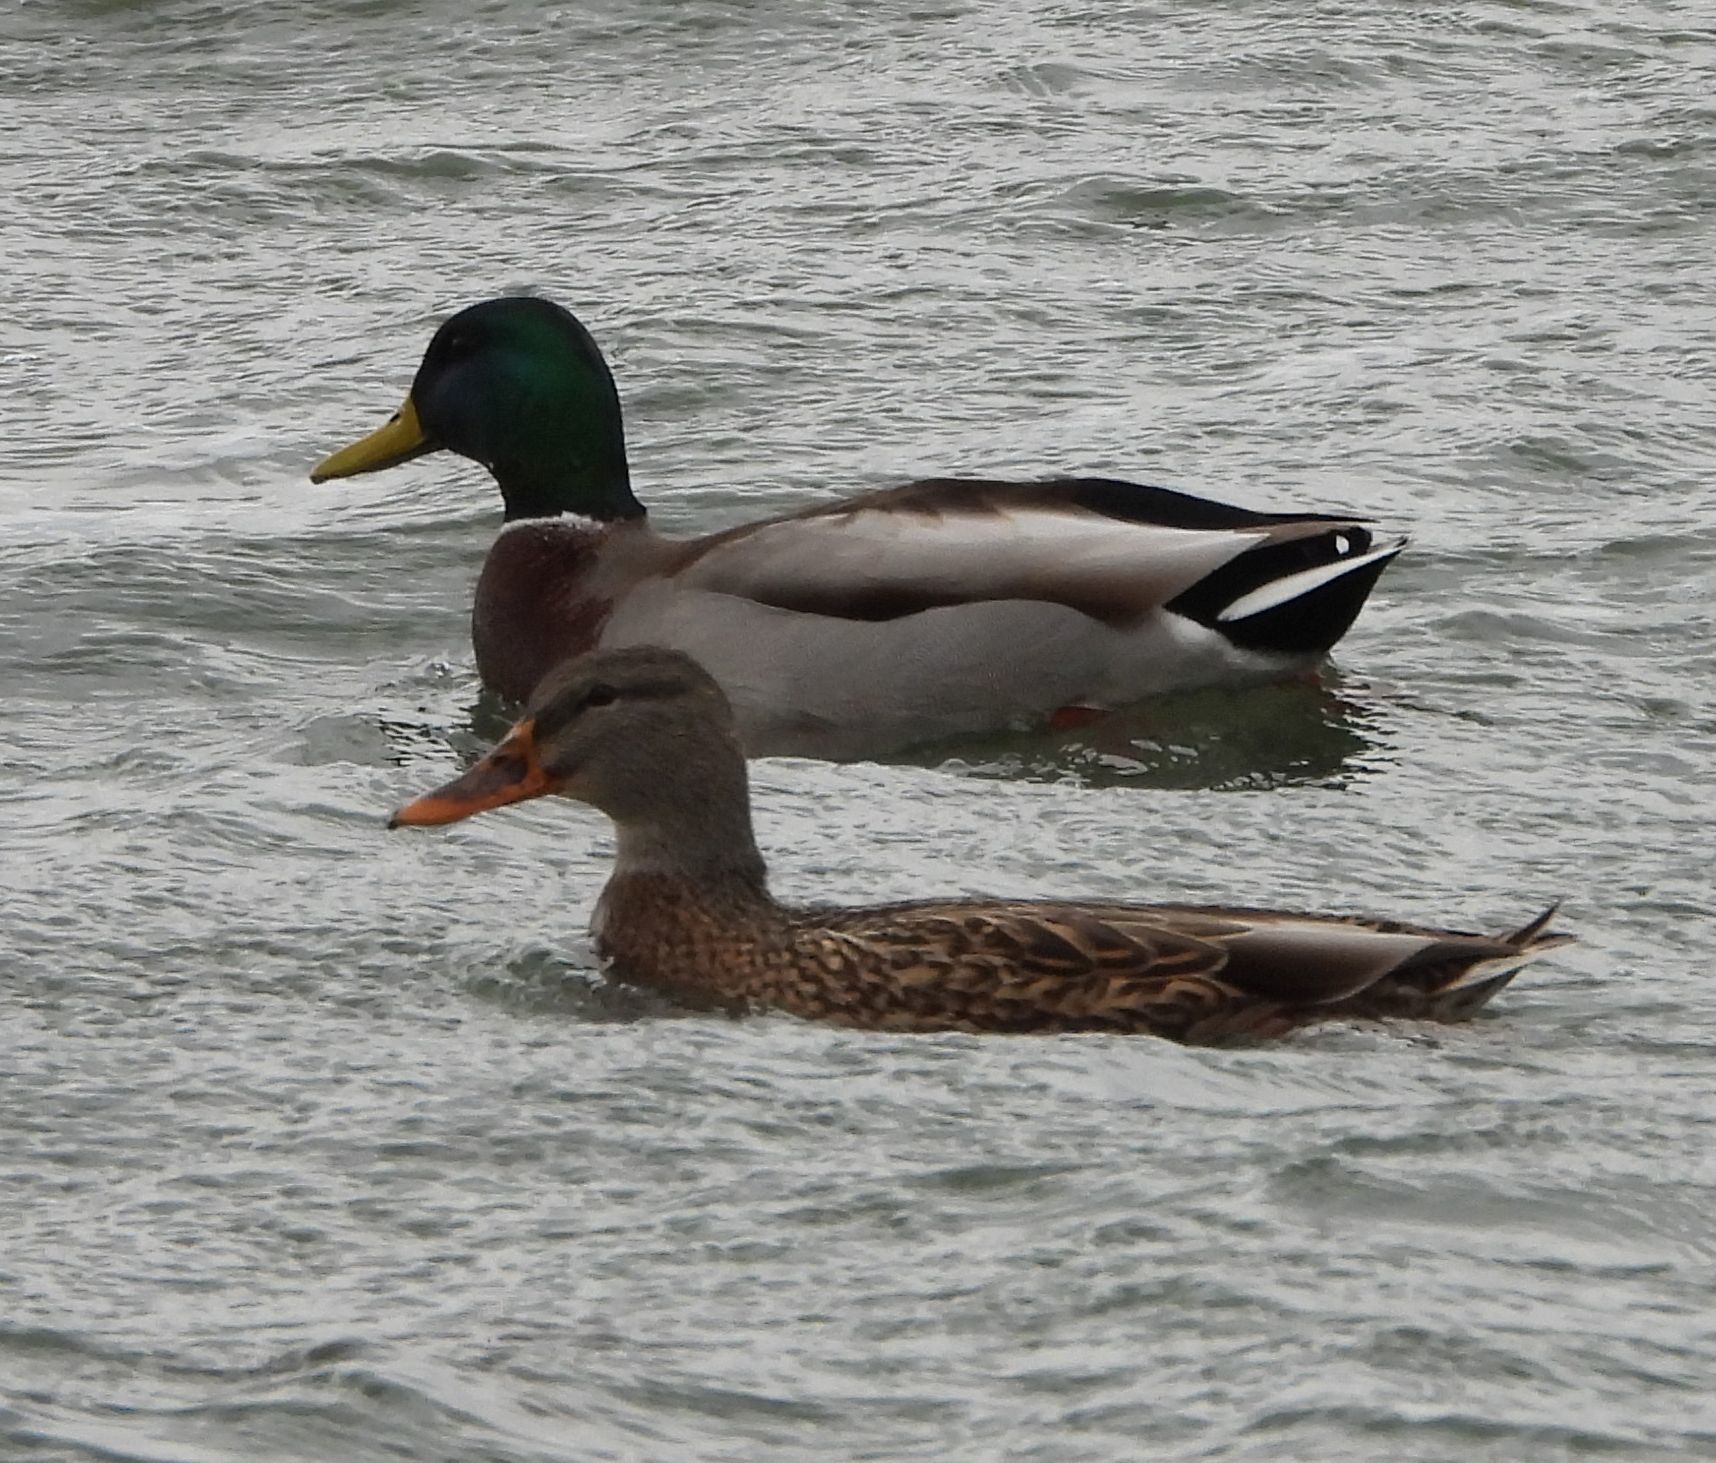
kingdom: Animalia
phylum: Chordata
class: Aves
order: Anseriformes
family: Anatidae
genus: Anas
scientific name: Anas platyrhynchos
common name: Mallard
